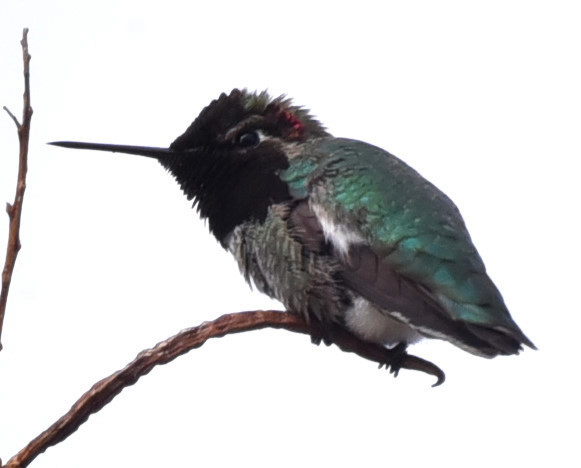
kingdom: Animalia
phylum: Chordata
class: Aves
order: Apodiformes
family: Trochilidae
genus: Calypte
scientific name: Calypte anna
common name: Anna's hummingbird
